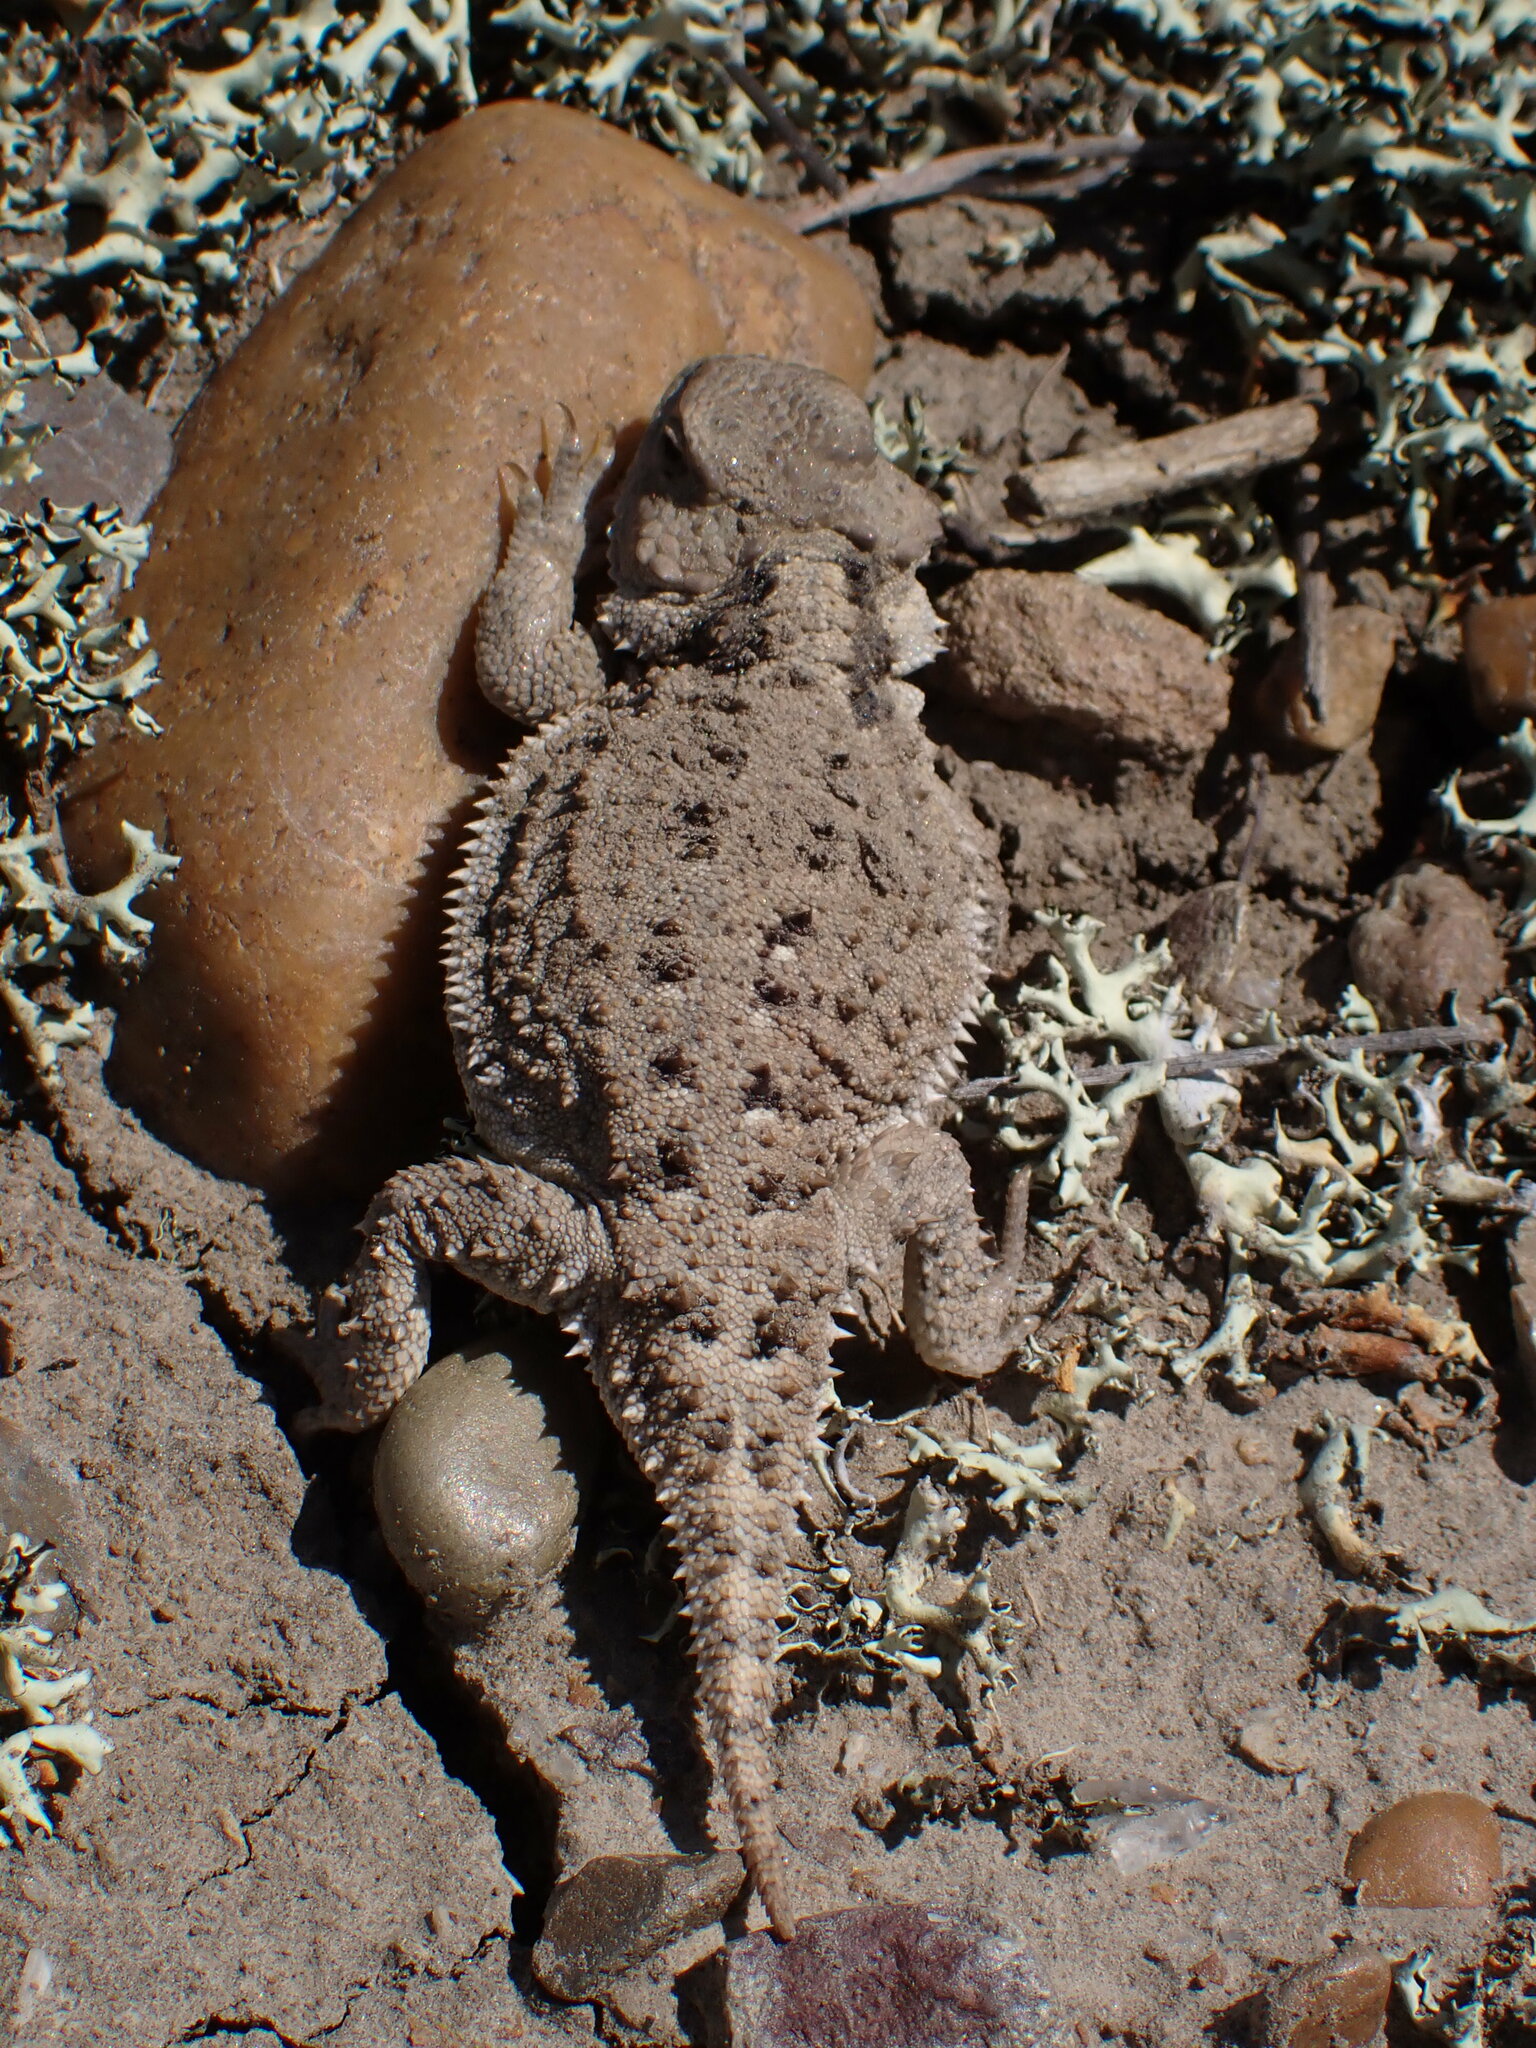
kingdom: Animalia
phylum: Chordata
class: Squamata
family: Phrynosomatidae
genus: Phrynosoma
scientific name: Phrynosoma hernandesi
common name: Greater short-horned lizard
